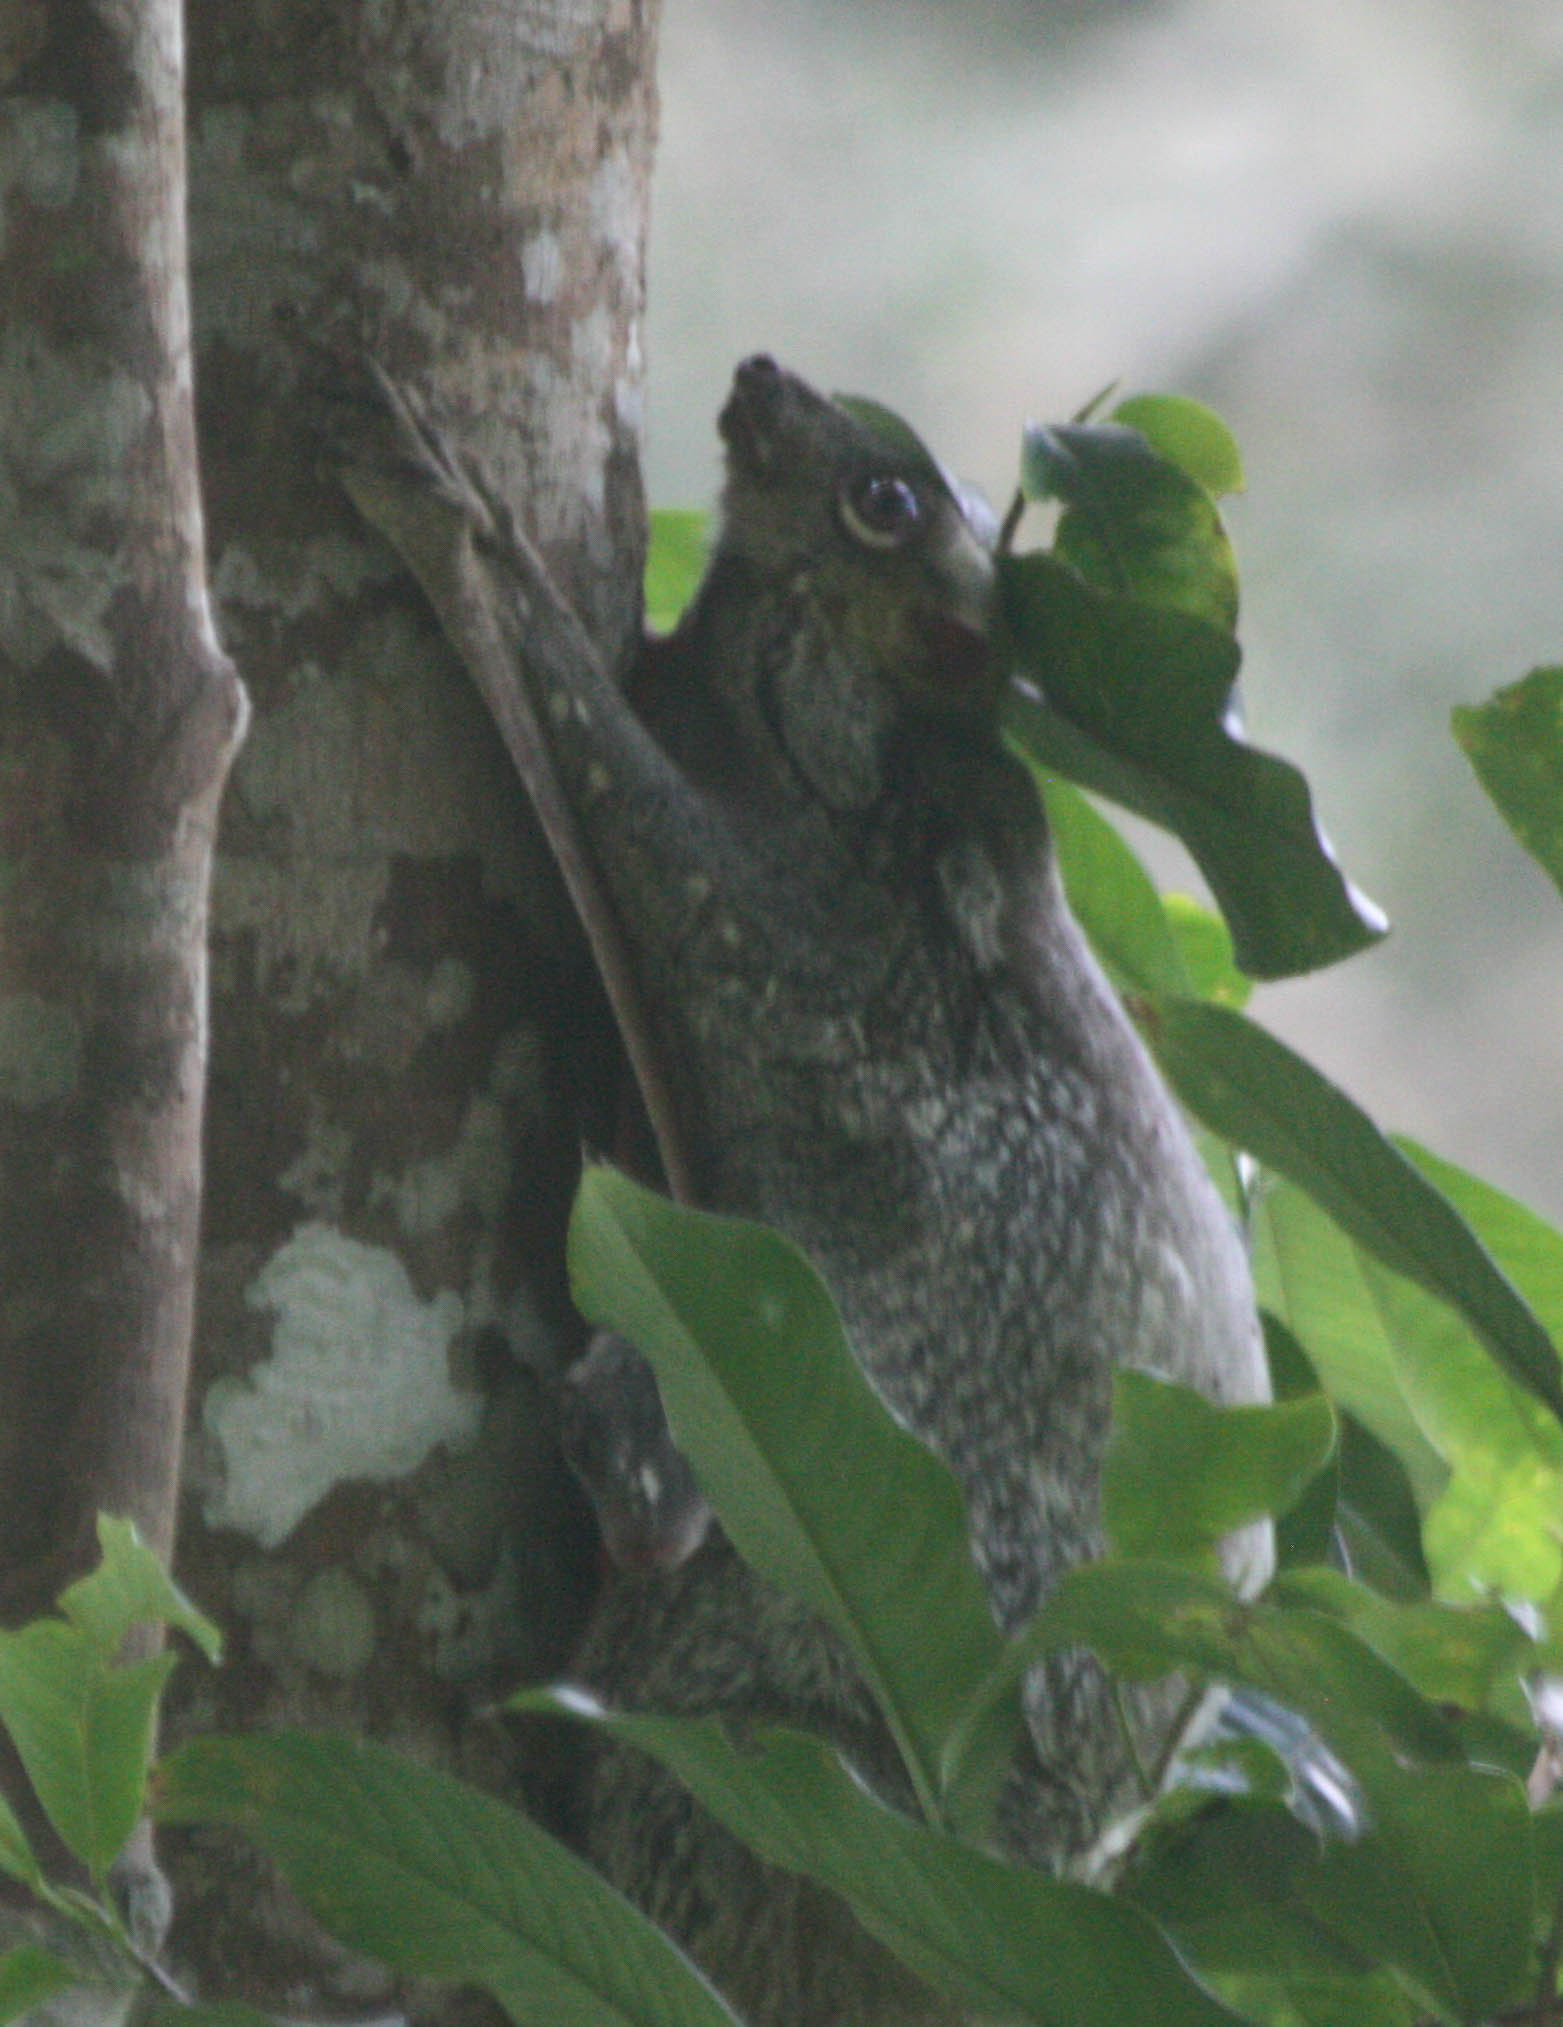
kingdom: Animalia
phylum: Chordata
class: Mammalia
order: Dermoptera
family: Cynocephalidae
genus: Galeopterus
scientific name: Galeopterus variegatus
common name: Sunda flying lemur
